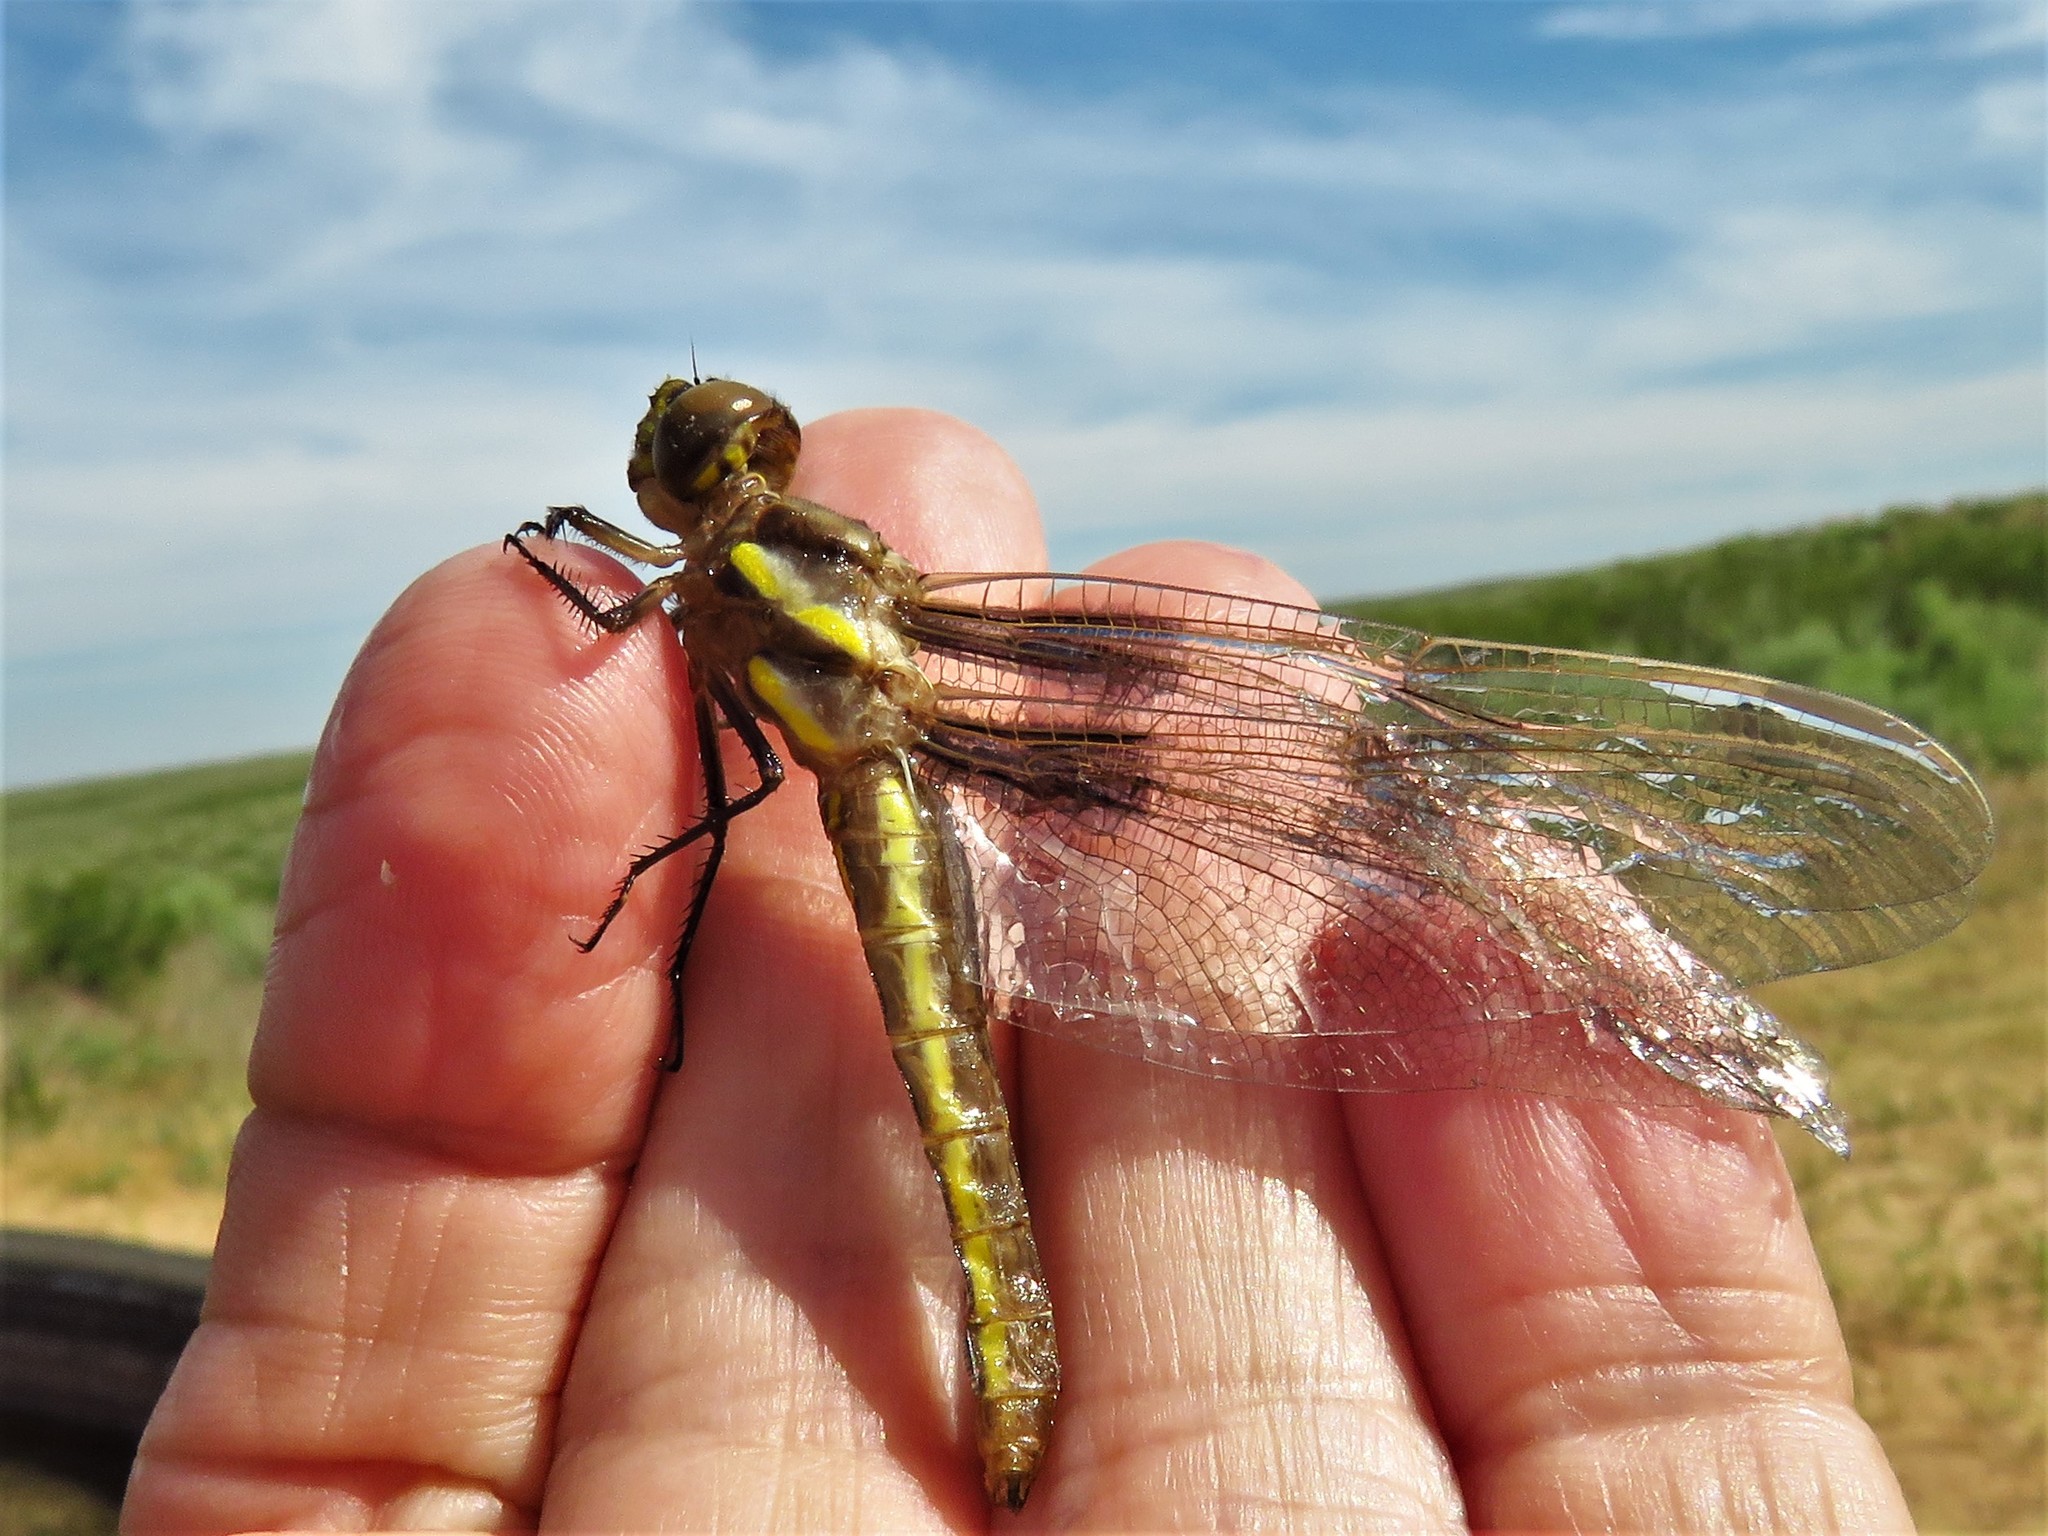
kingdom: Animalia
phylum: Arthropoda
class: Insecta
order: Odonata
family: Libellulidae
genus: Libellula
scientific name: Libellula pulchella
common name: Twelve-spotted skimmer
